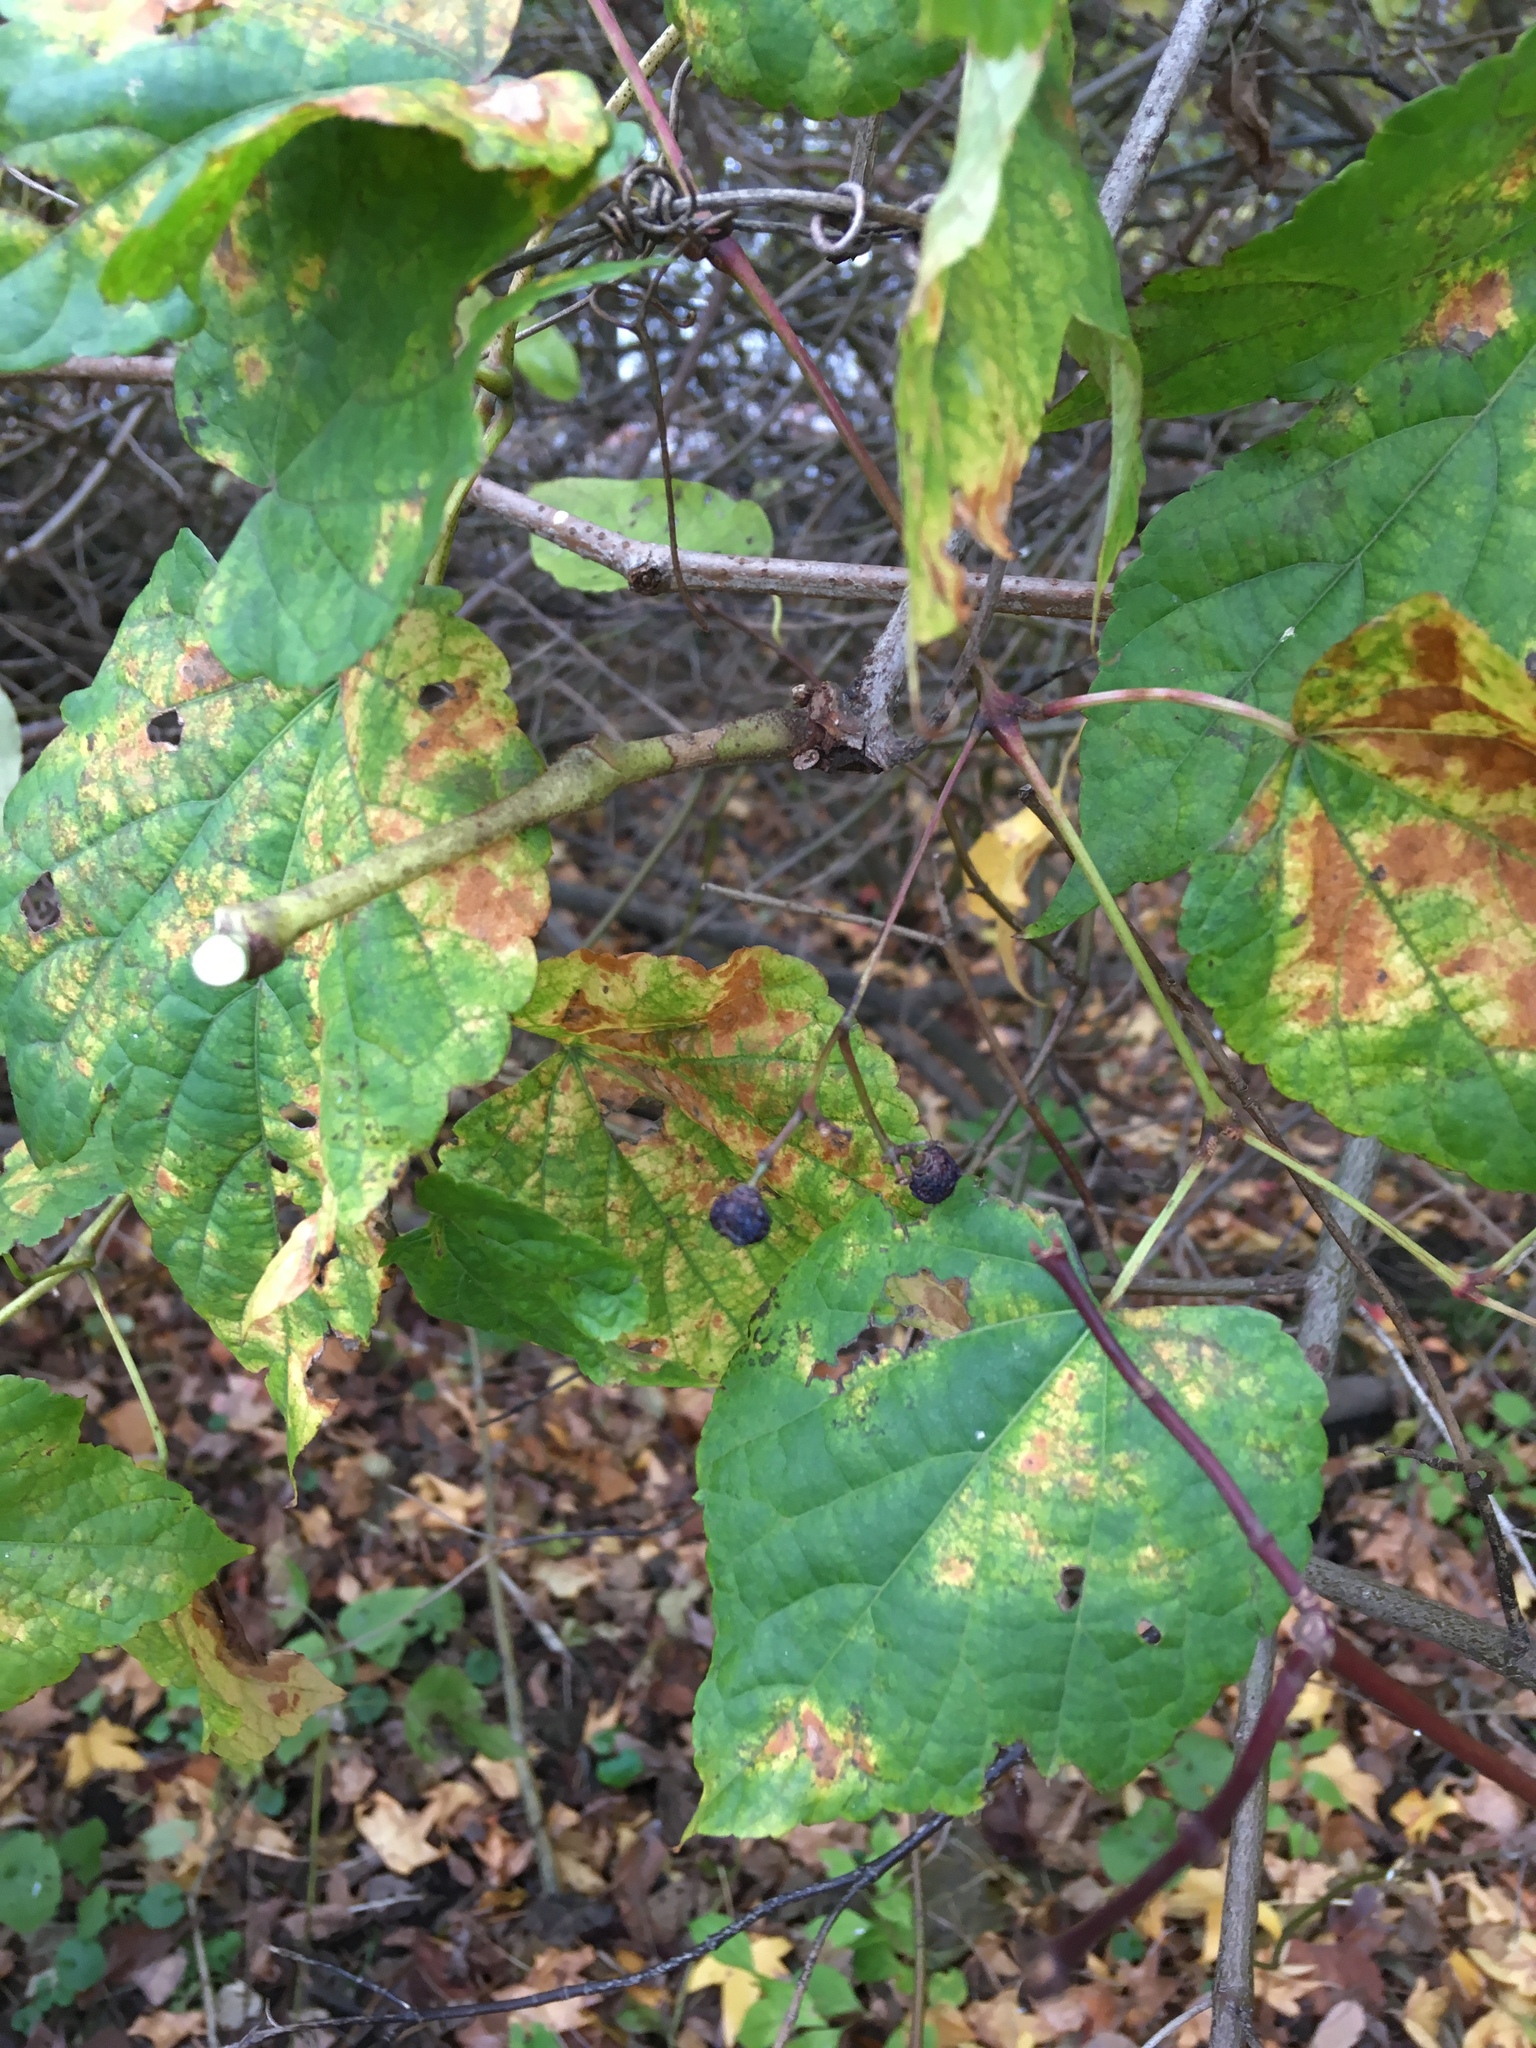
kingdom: Plantae
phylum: Tracheophyta
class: Magnoliopsida
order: Vitales
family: Vitaceae
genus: Ampelopsis
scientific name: Ampelopsis glandulosa
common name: Amur peppervine
